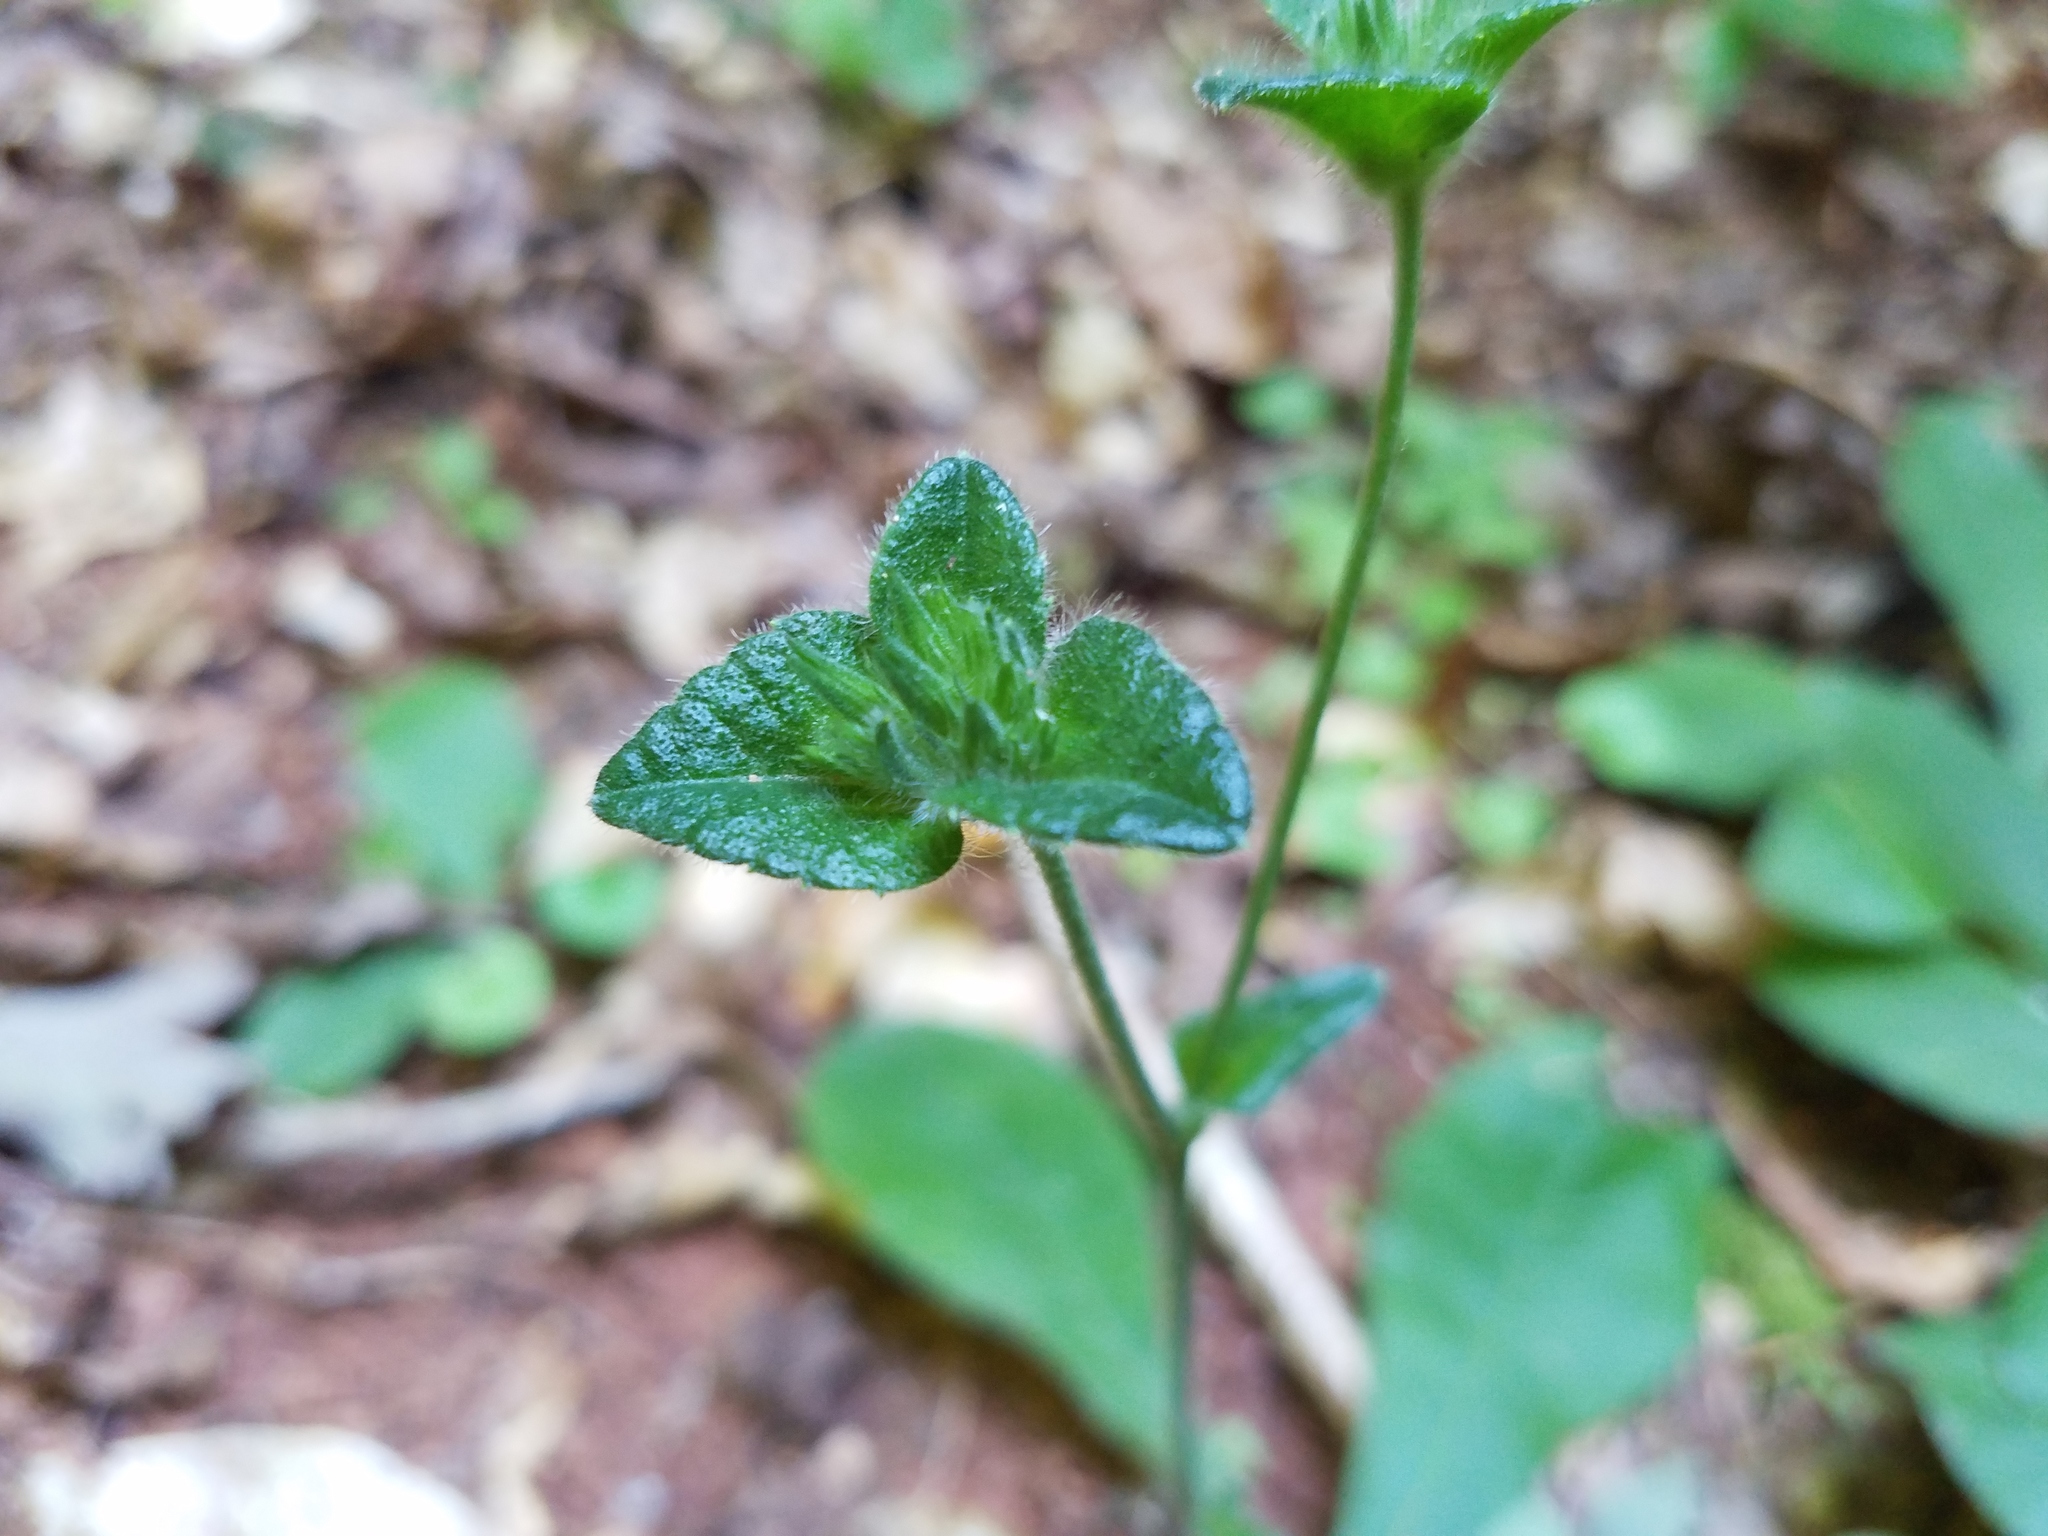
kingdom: Plantae
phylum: Tracheophyta
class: Magnoliopsida
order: Asterales
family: Asteraceae
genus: Elephantopus
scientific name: Elephantopus tomentosus
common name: Tobacco-weed
